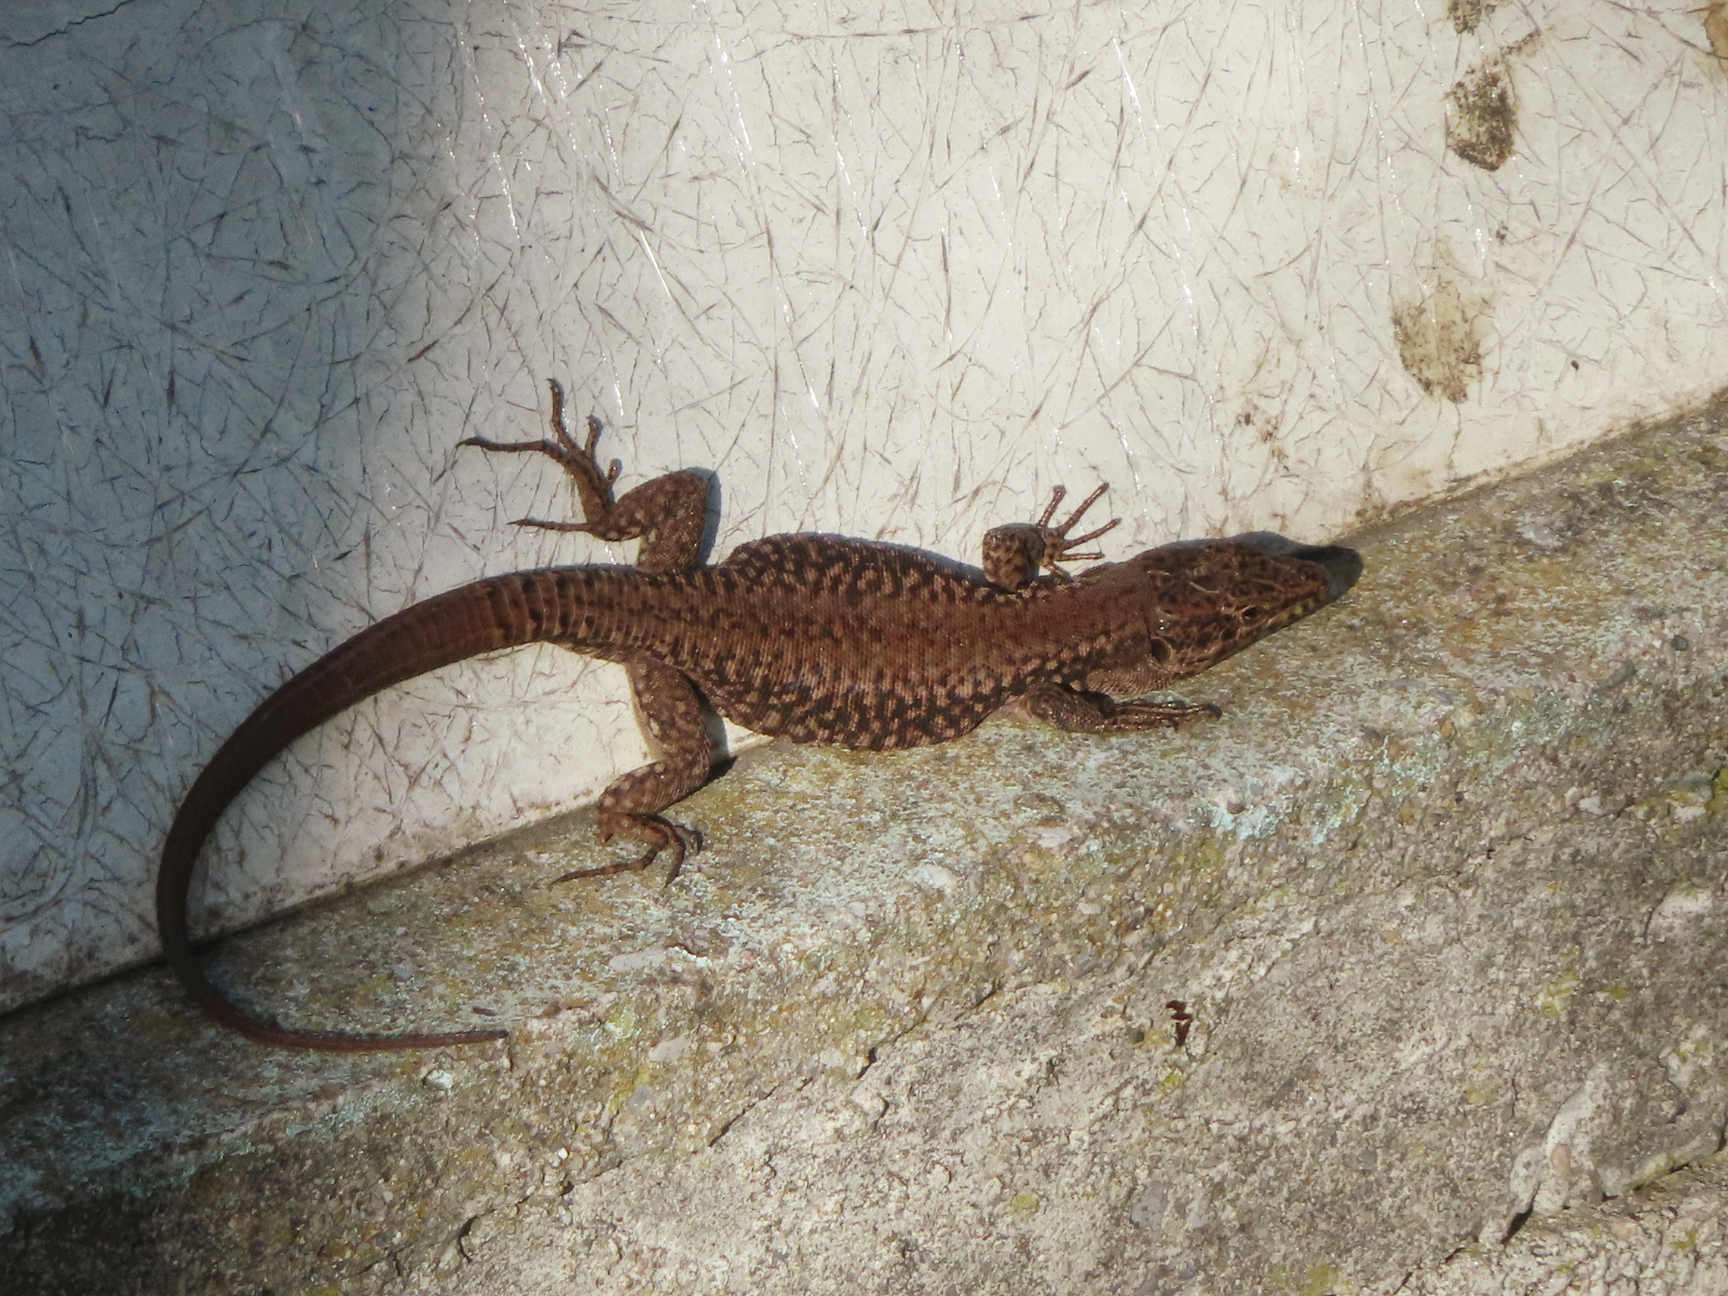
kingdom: Animalia
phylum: Chordata
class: Squamata
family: Lacertidae
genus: Podarcis
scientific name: Podarcis muralis
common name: Common wall lizard
